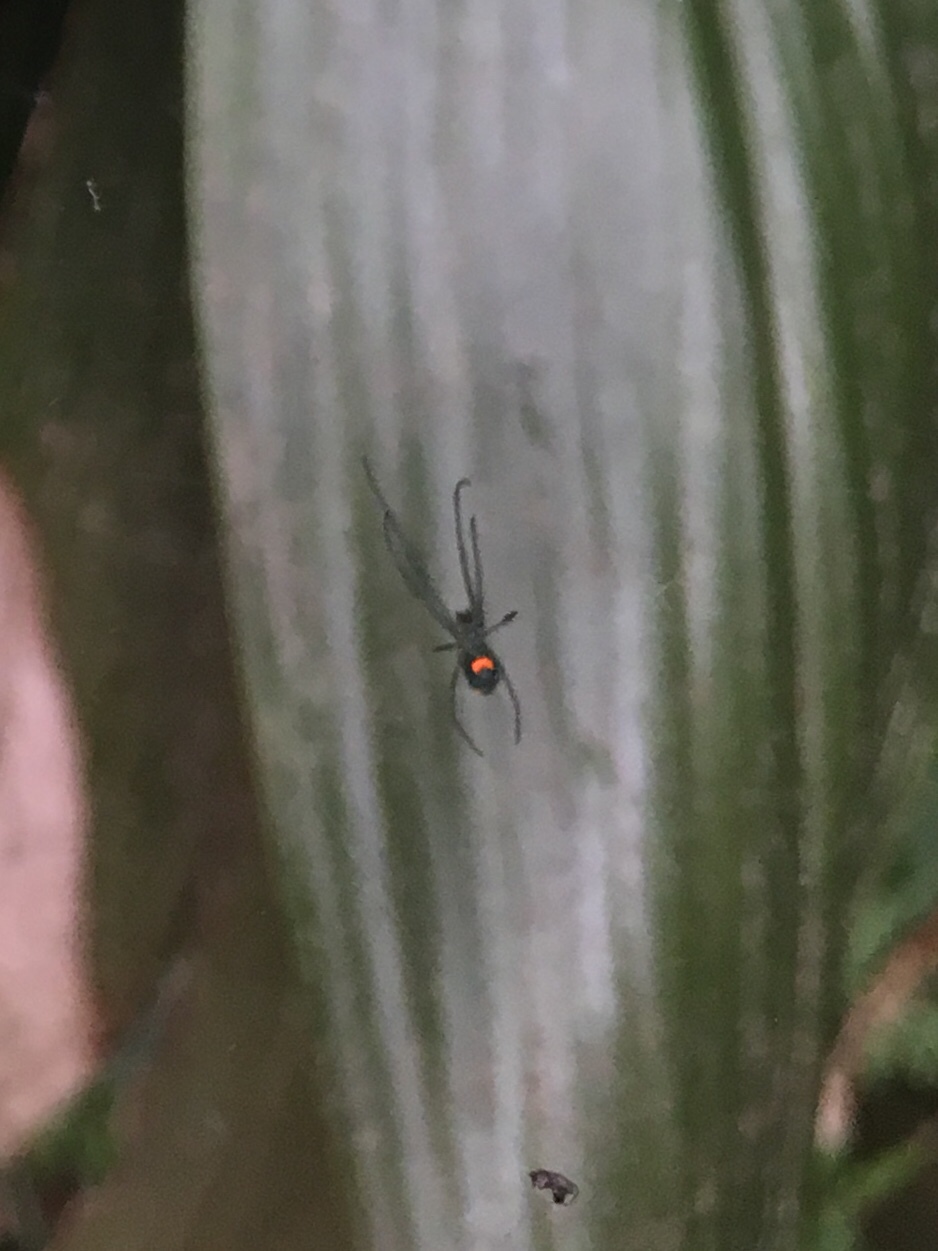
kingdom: Animalia
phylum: Arthropoda
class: Arachnida
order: Araneae
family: Tetragnathidae
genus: Leucauge
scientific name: Leucauge argyrobapta
